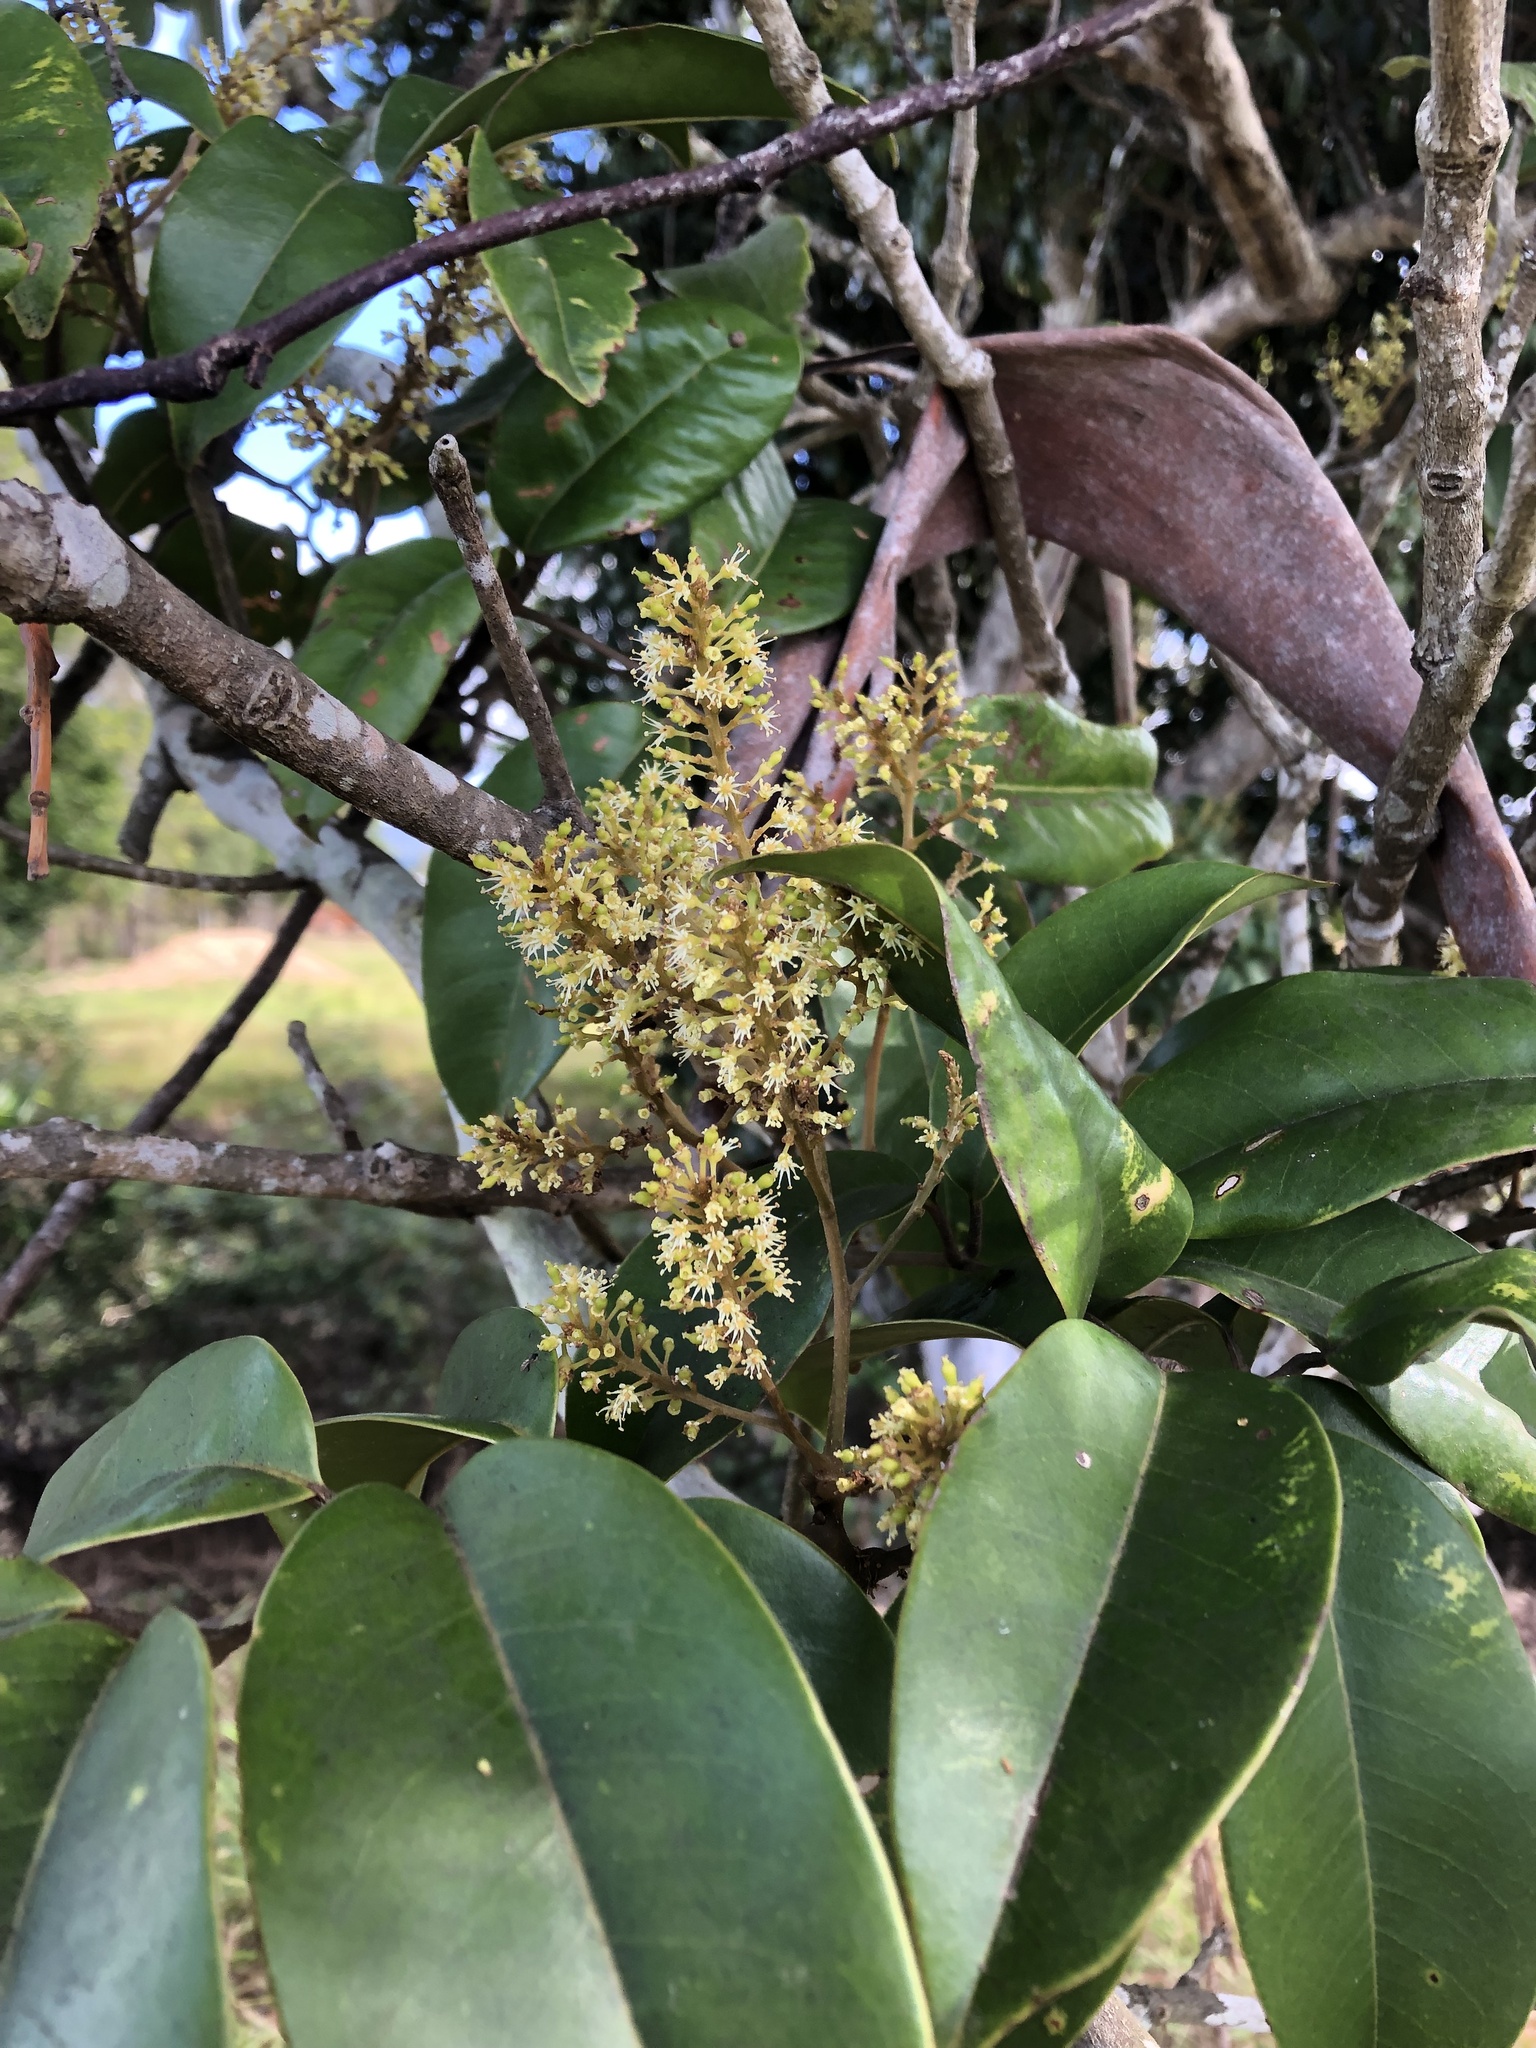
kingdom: Plantae
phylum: Tracheophyta
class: Magnoliopsida
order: Sapindales
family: Sapindaceae
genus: Mischocarpus
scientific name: Mischocarpus pyriformis
